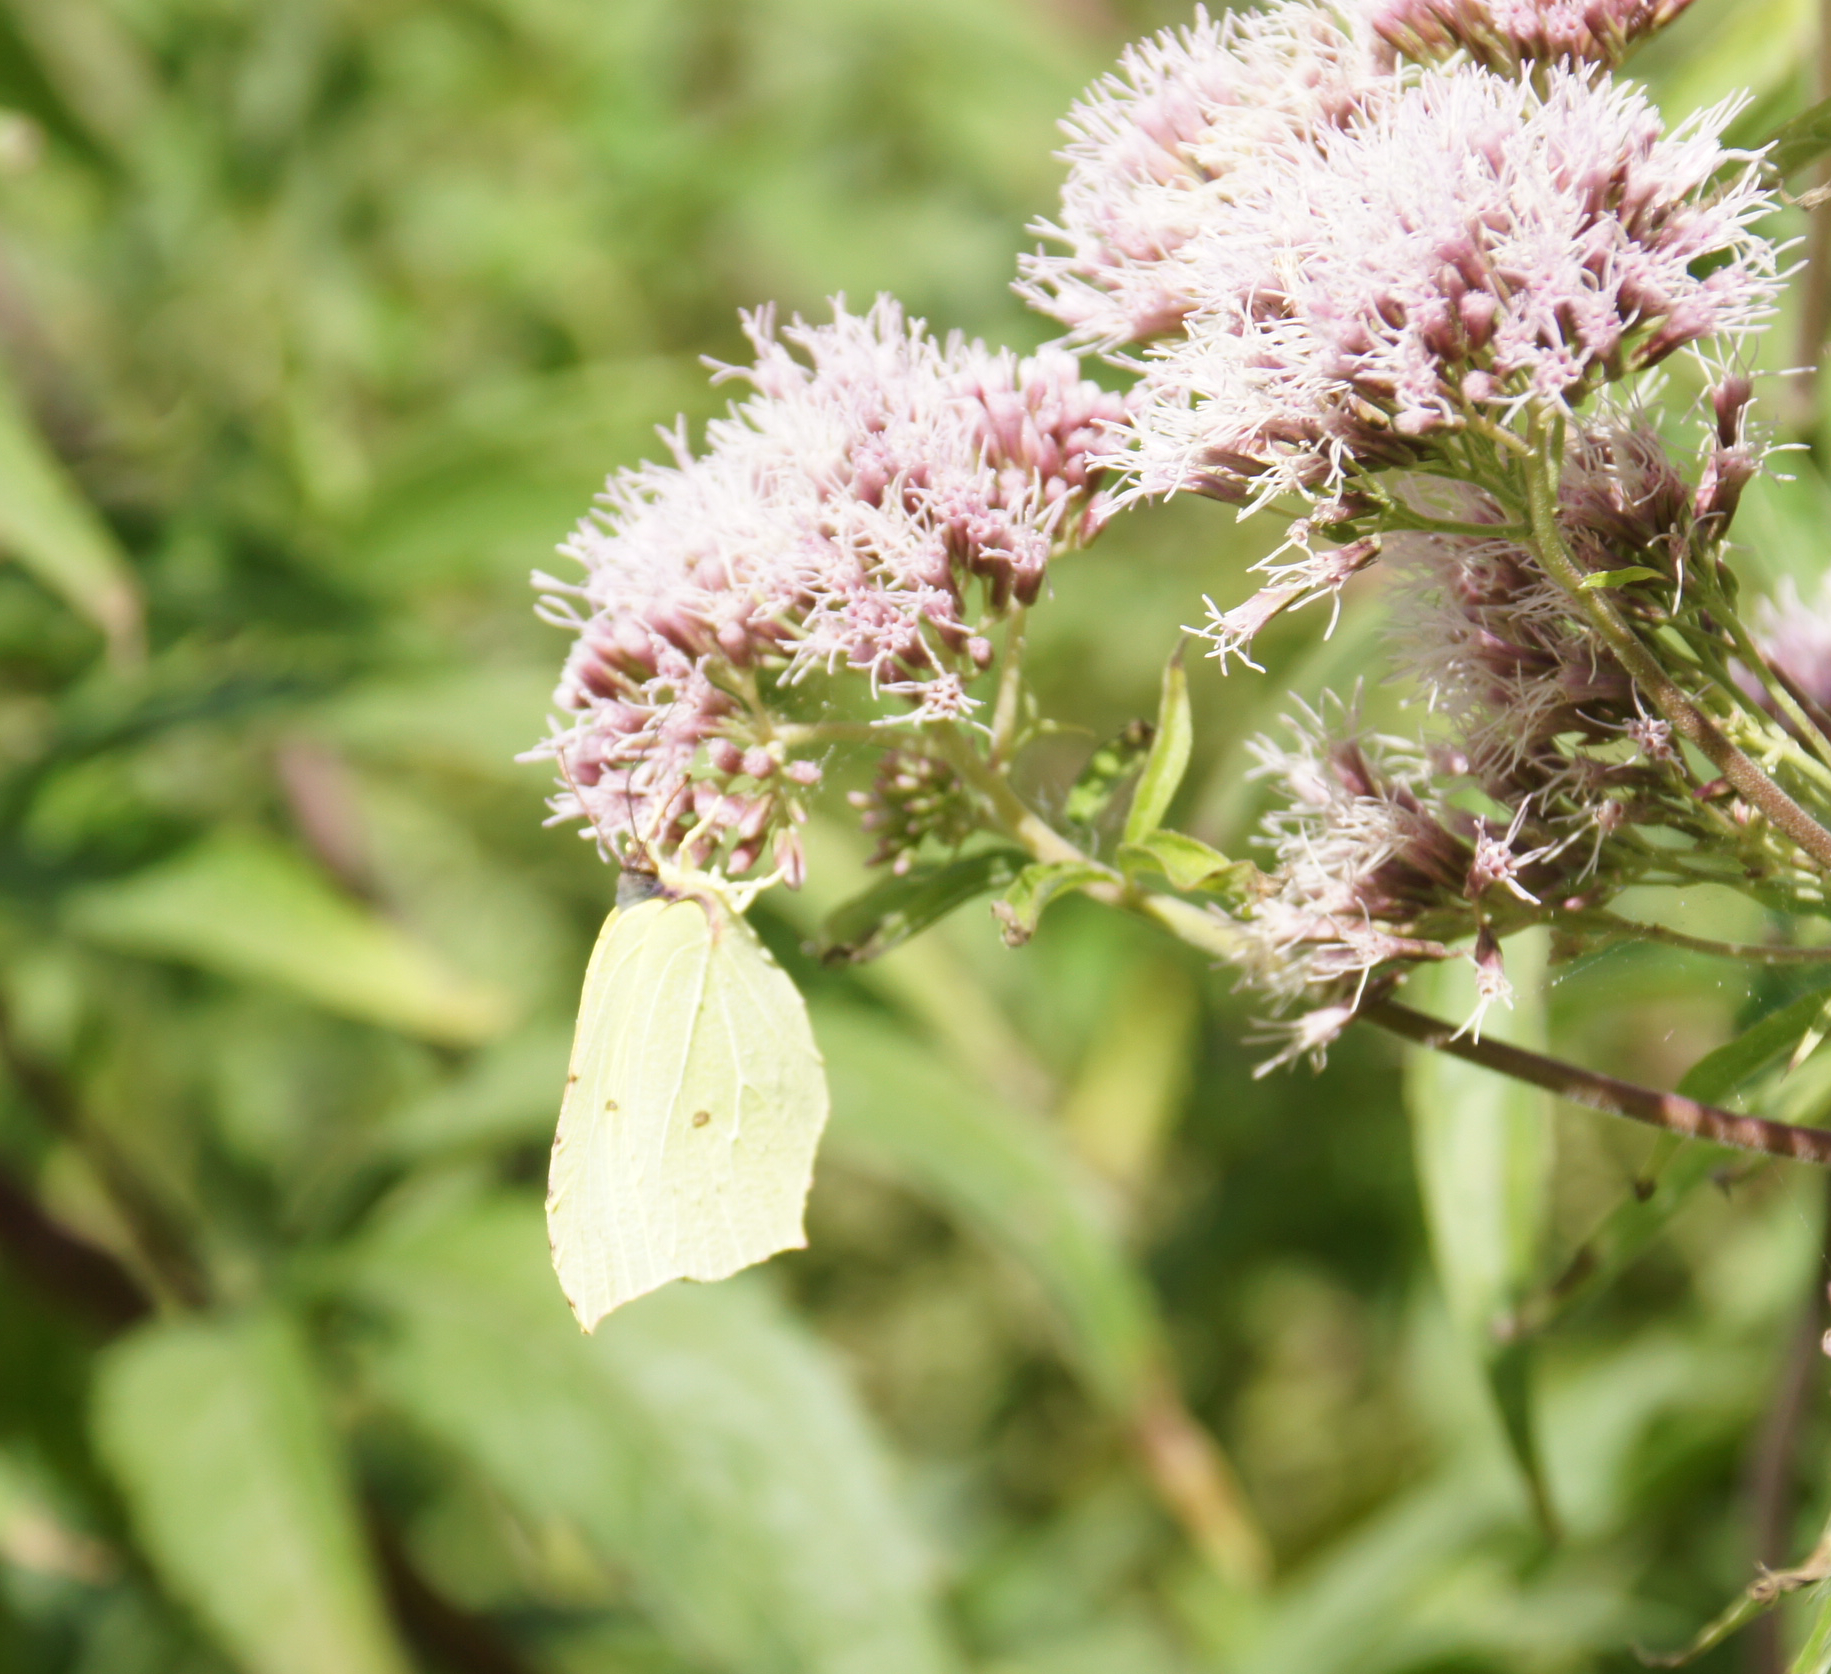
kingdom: Animalia
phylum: Arthropoda
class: Insecta
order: Lepidoptera
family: Pieridae
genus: Gonepteryx
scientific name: Gonepteryx rhamni
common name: Brimstone
